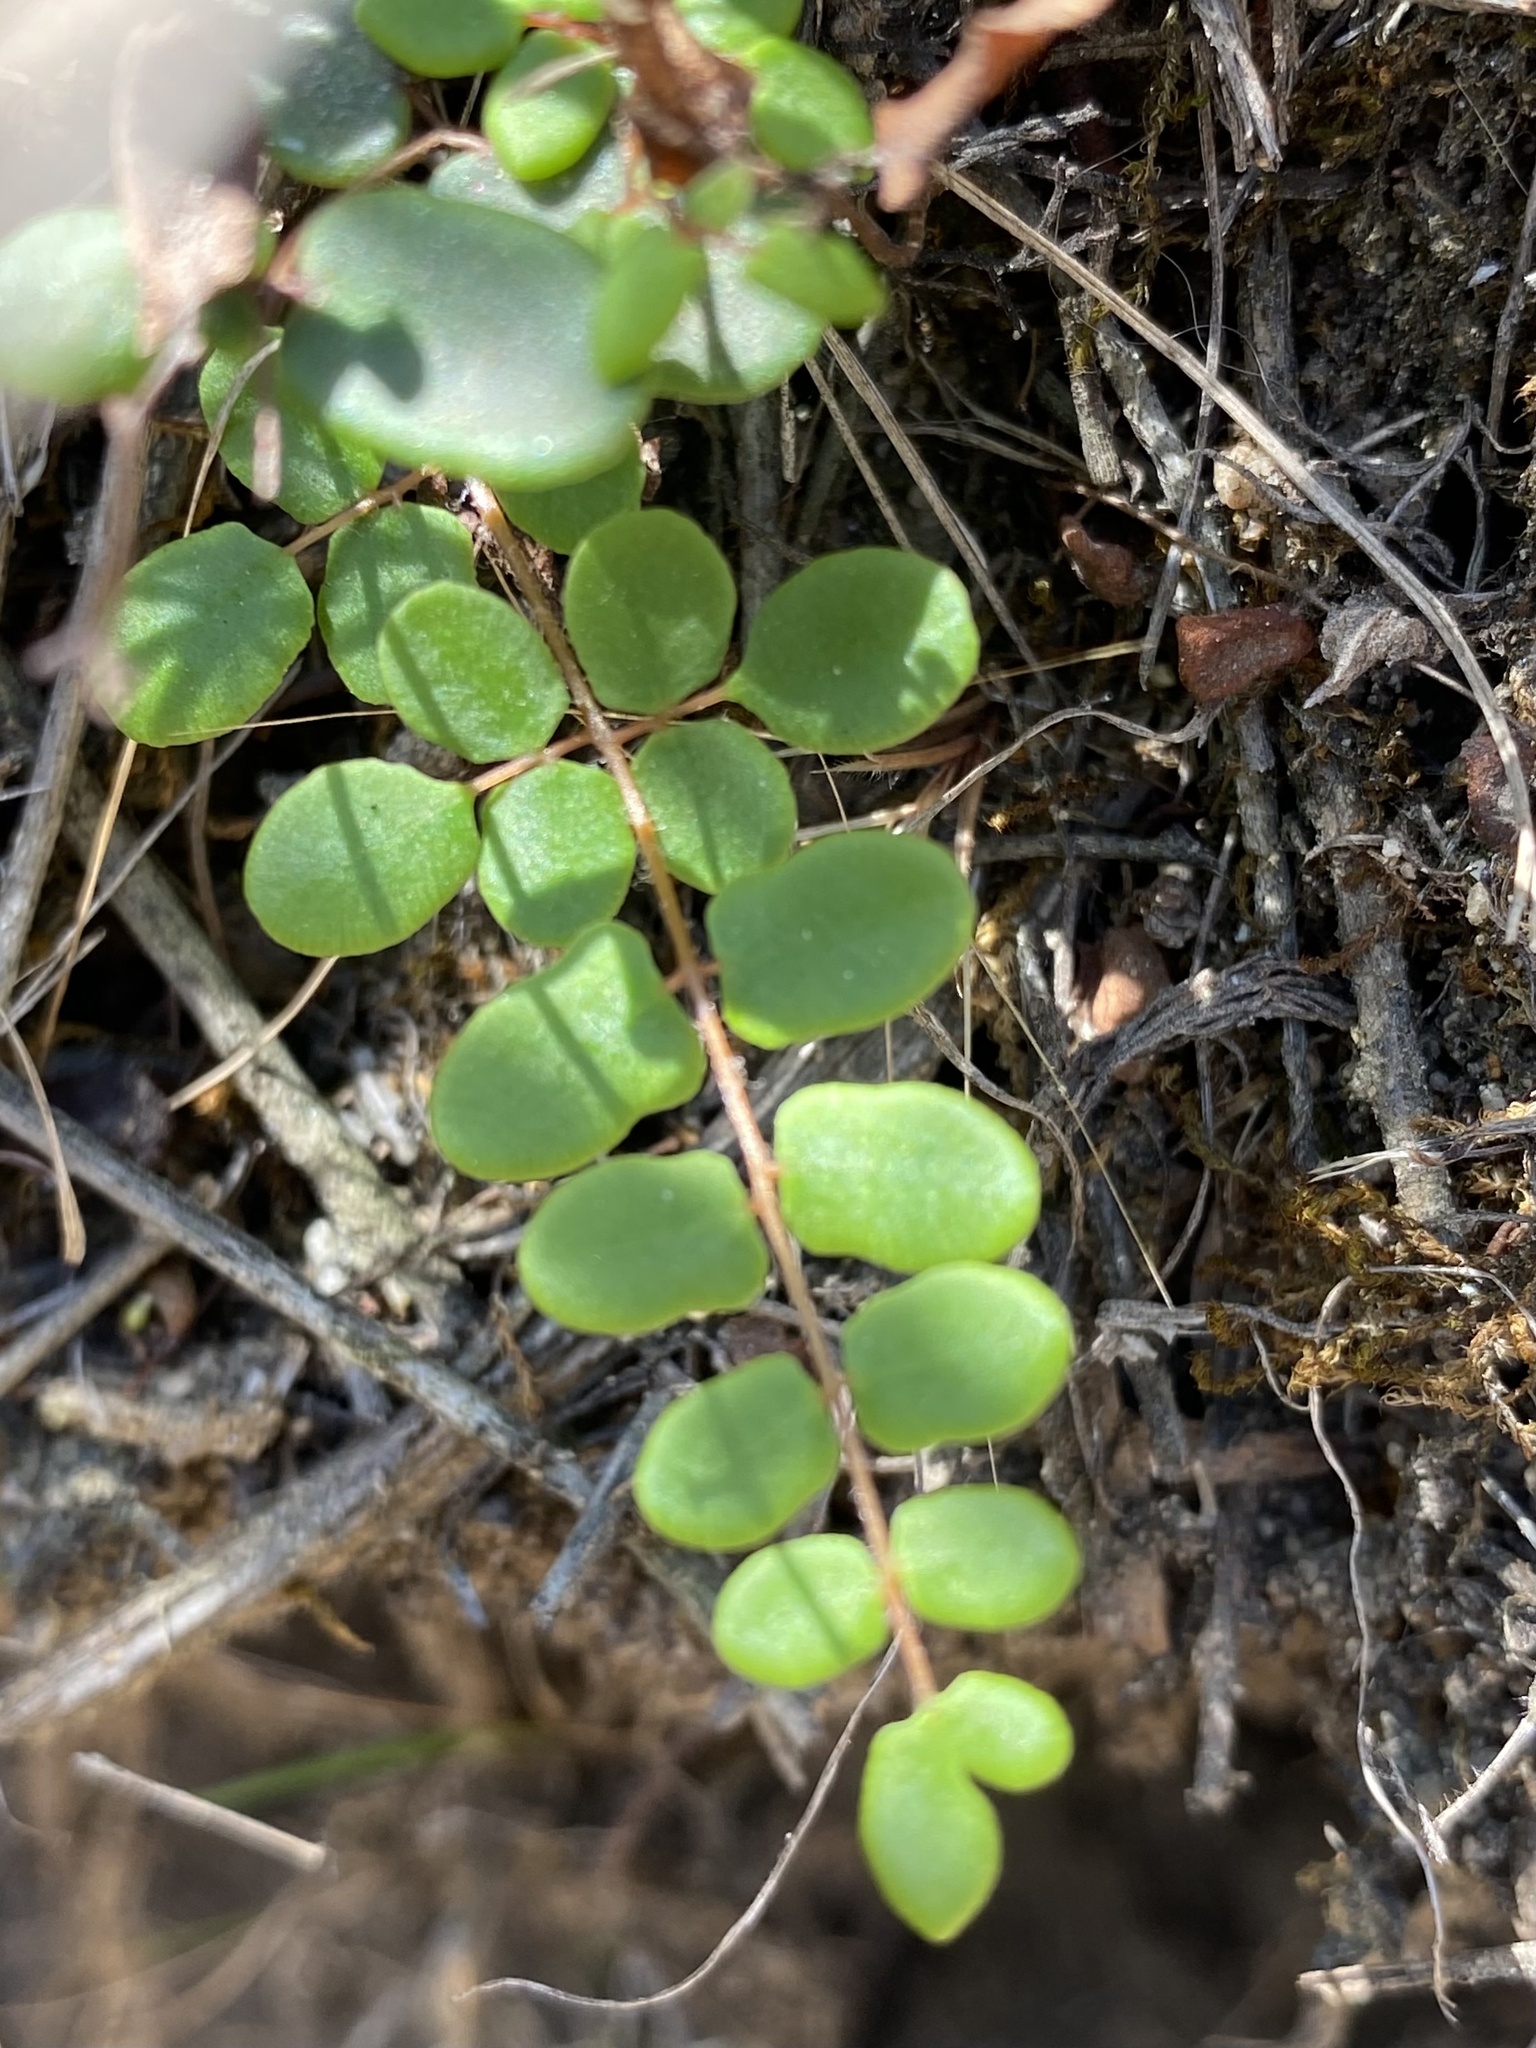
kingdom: Plantae
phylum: Tracheophyta
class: Polypodiopsida
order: Polypodiales
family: Pteridaceae
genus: Pellaea
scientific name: Pellaea andromedifolia
